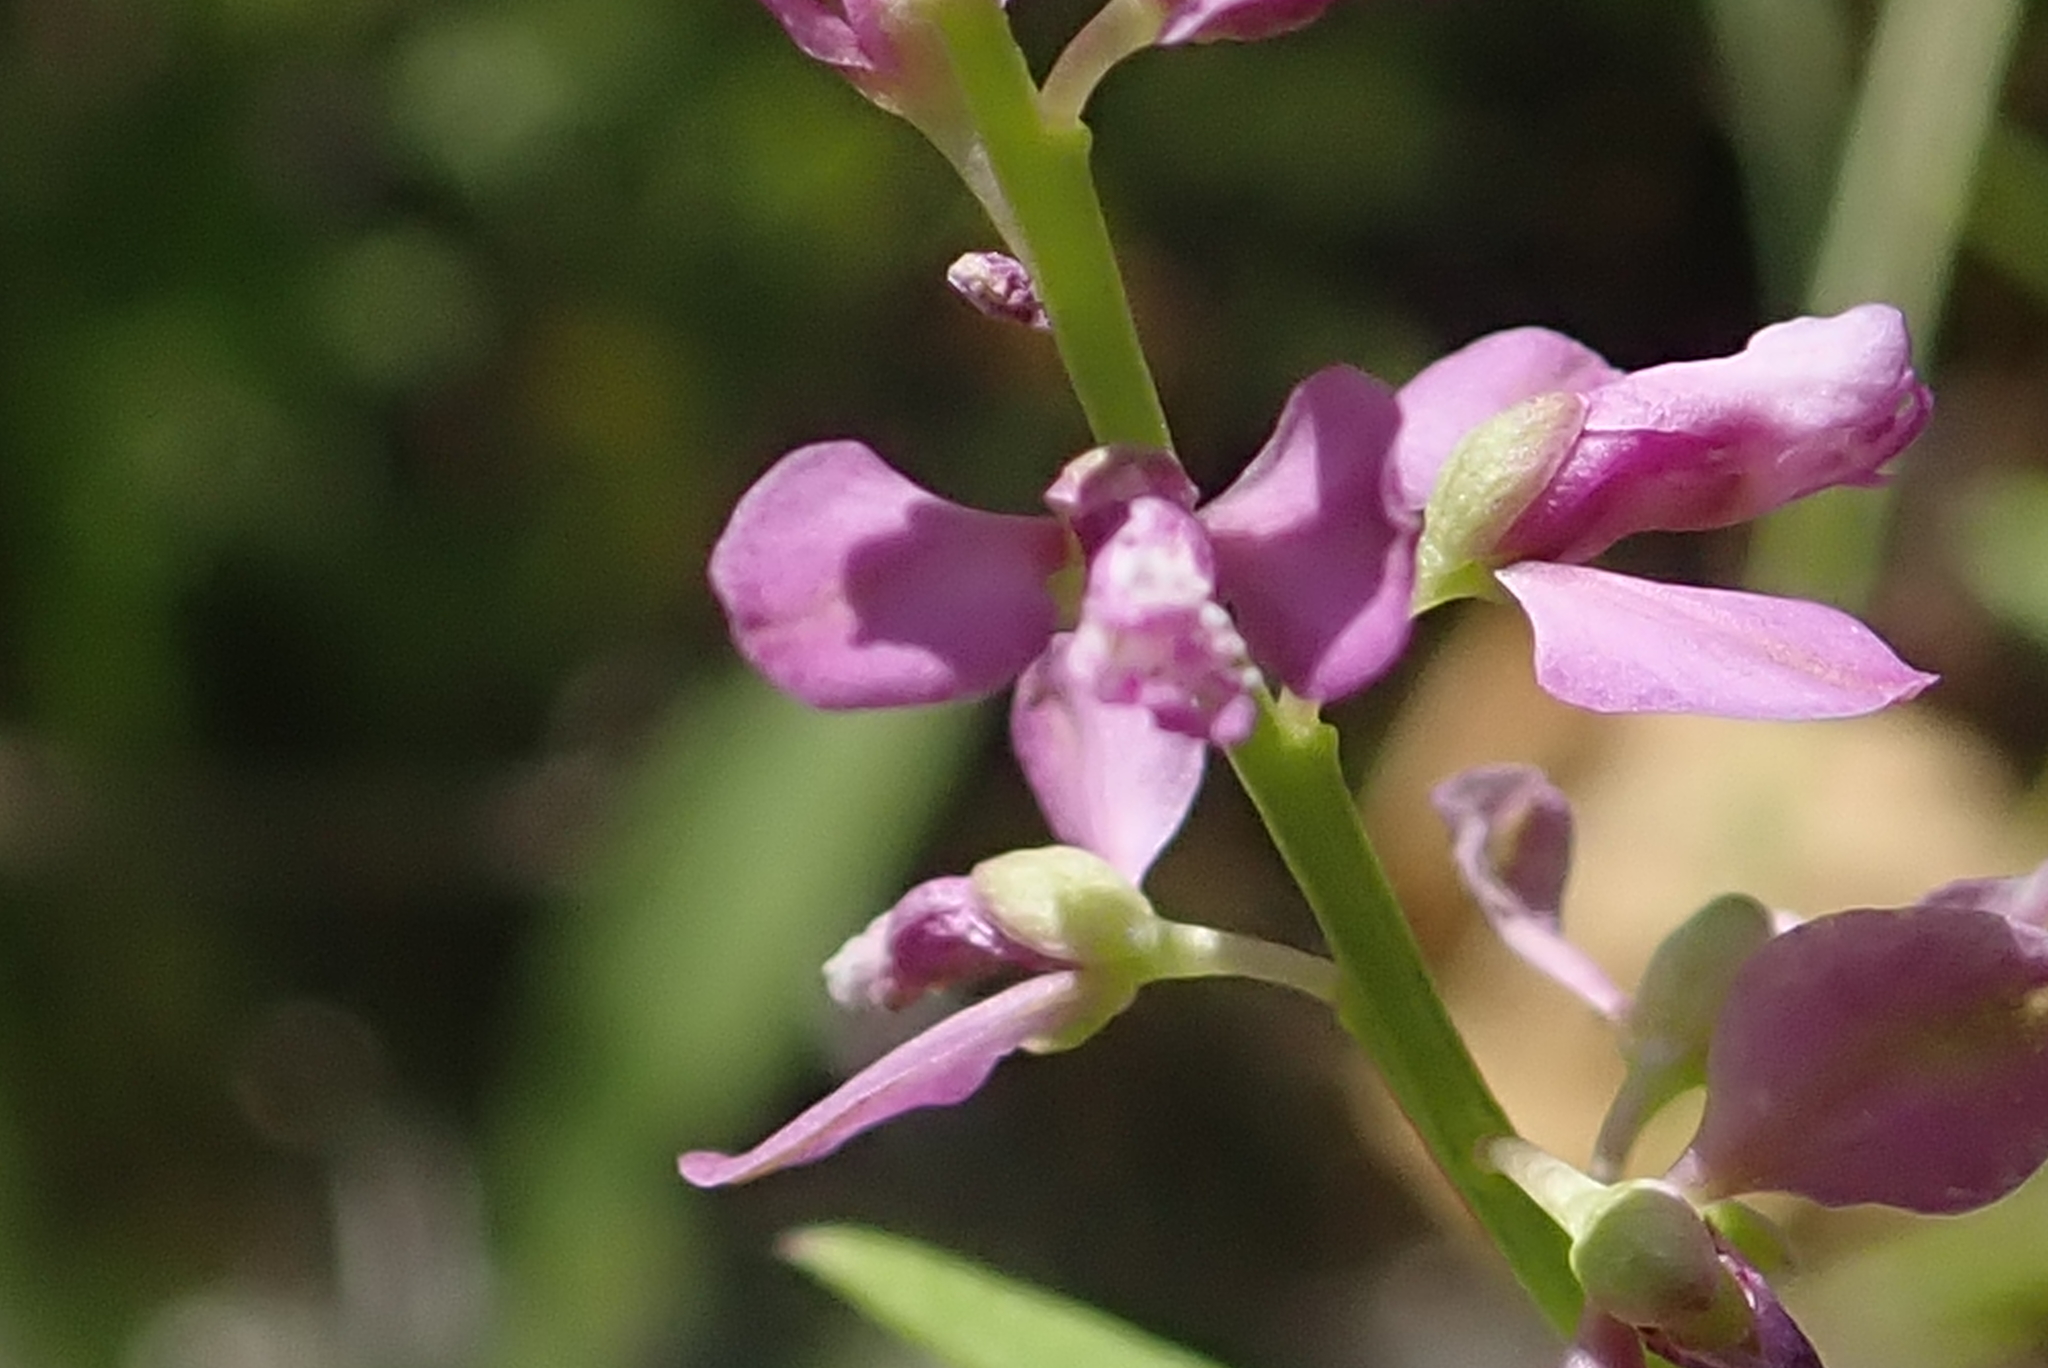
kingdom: Plantae
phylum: Tracheophyta
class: Magnoliopsida
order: Fabales
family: Polygalaceae
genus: Polygala
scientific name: Polygala polygama
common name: Bitter milkwort
